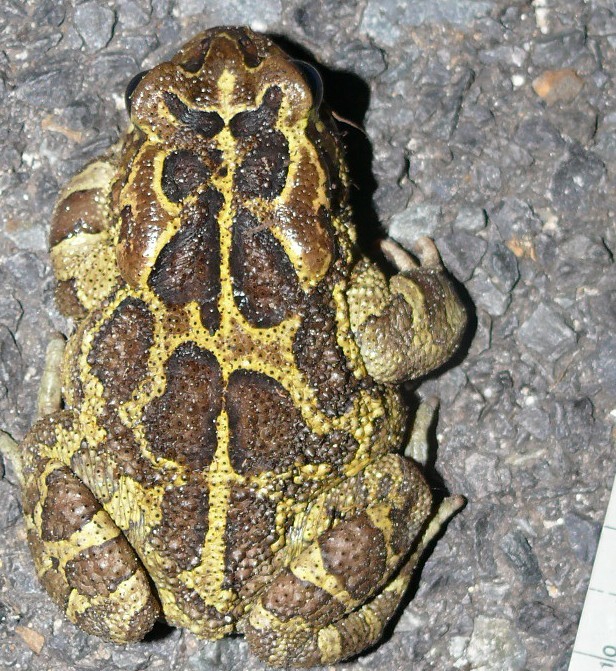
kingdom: Animalia
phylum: Chordata
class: Amphibia
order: Anura
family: Bufonidae
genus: Sclerophrys
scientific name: Sclerophrys pantherina
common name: Panther toad
